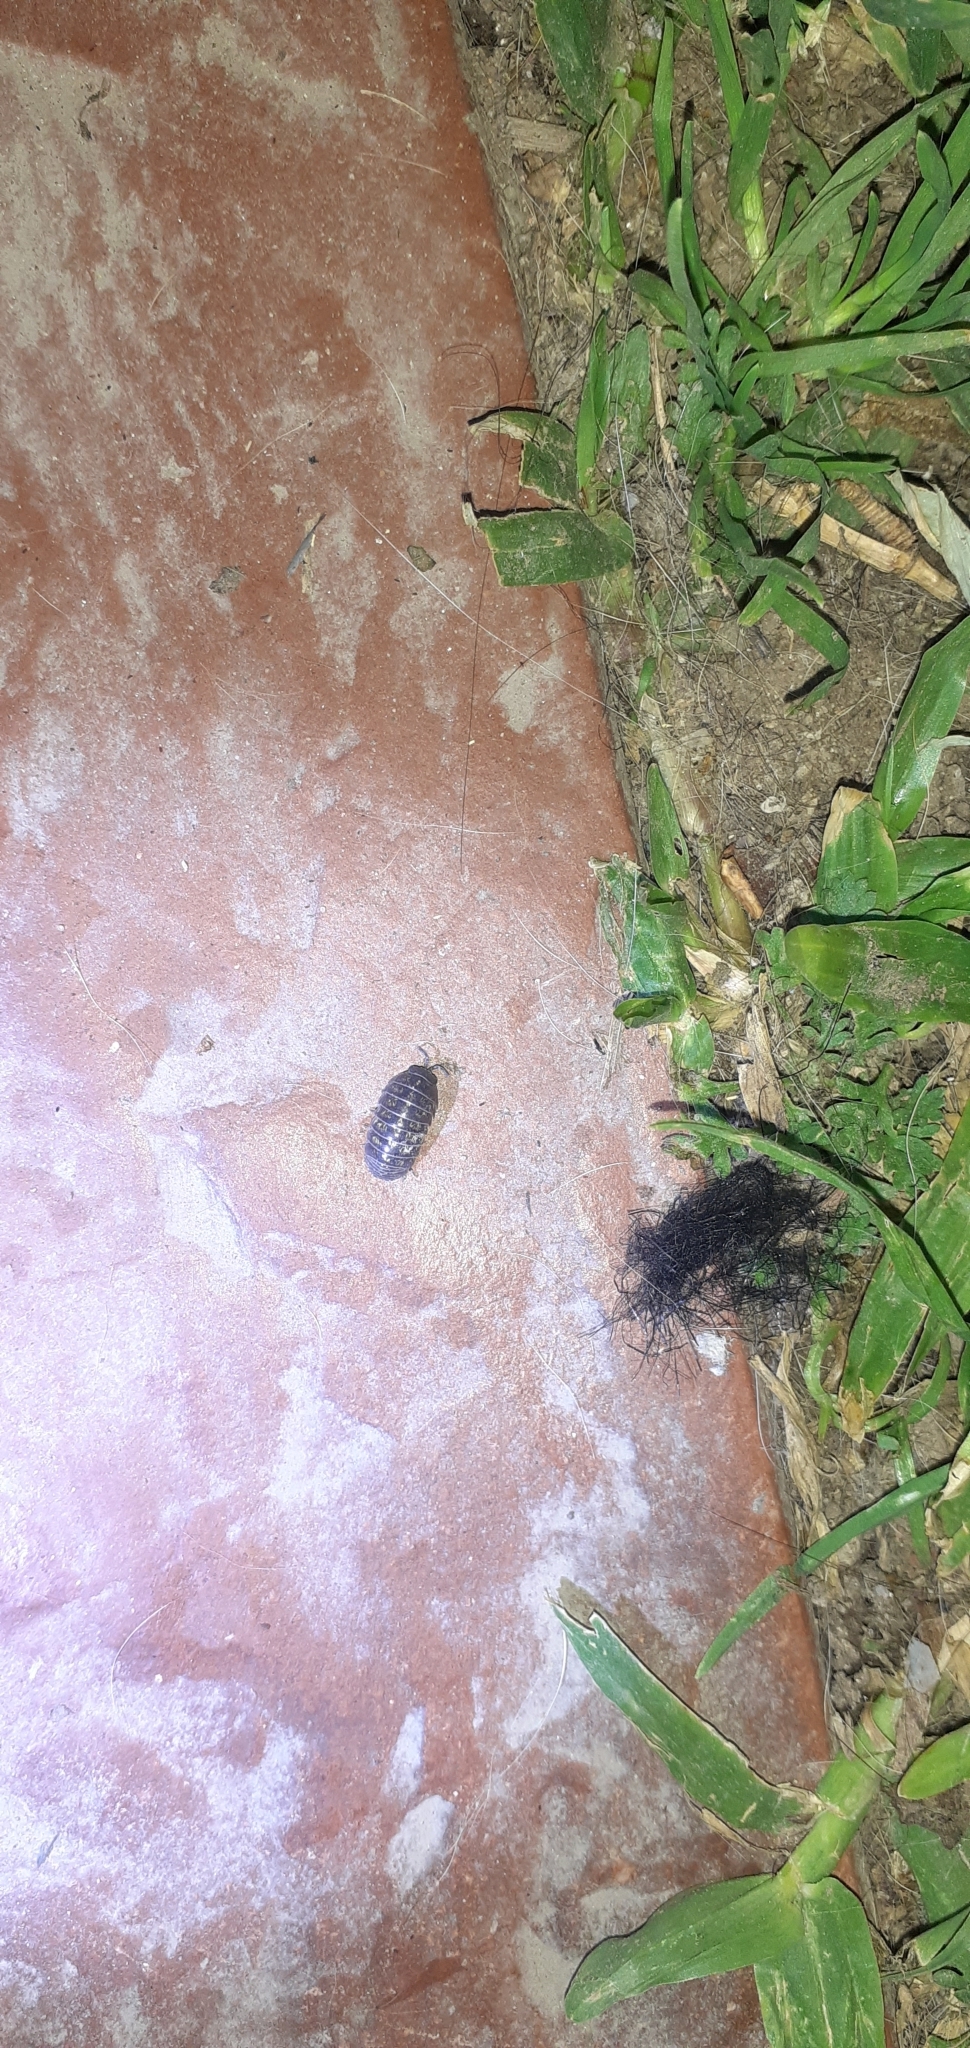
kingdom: Animalia
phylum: Arthropoda
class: Malacostraca
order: Isopoda
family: Armadillidiidae
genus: Armadillidium
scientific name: Armadillidium vulgare
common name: Common pill woodlouse
